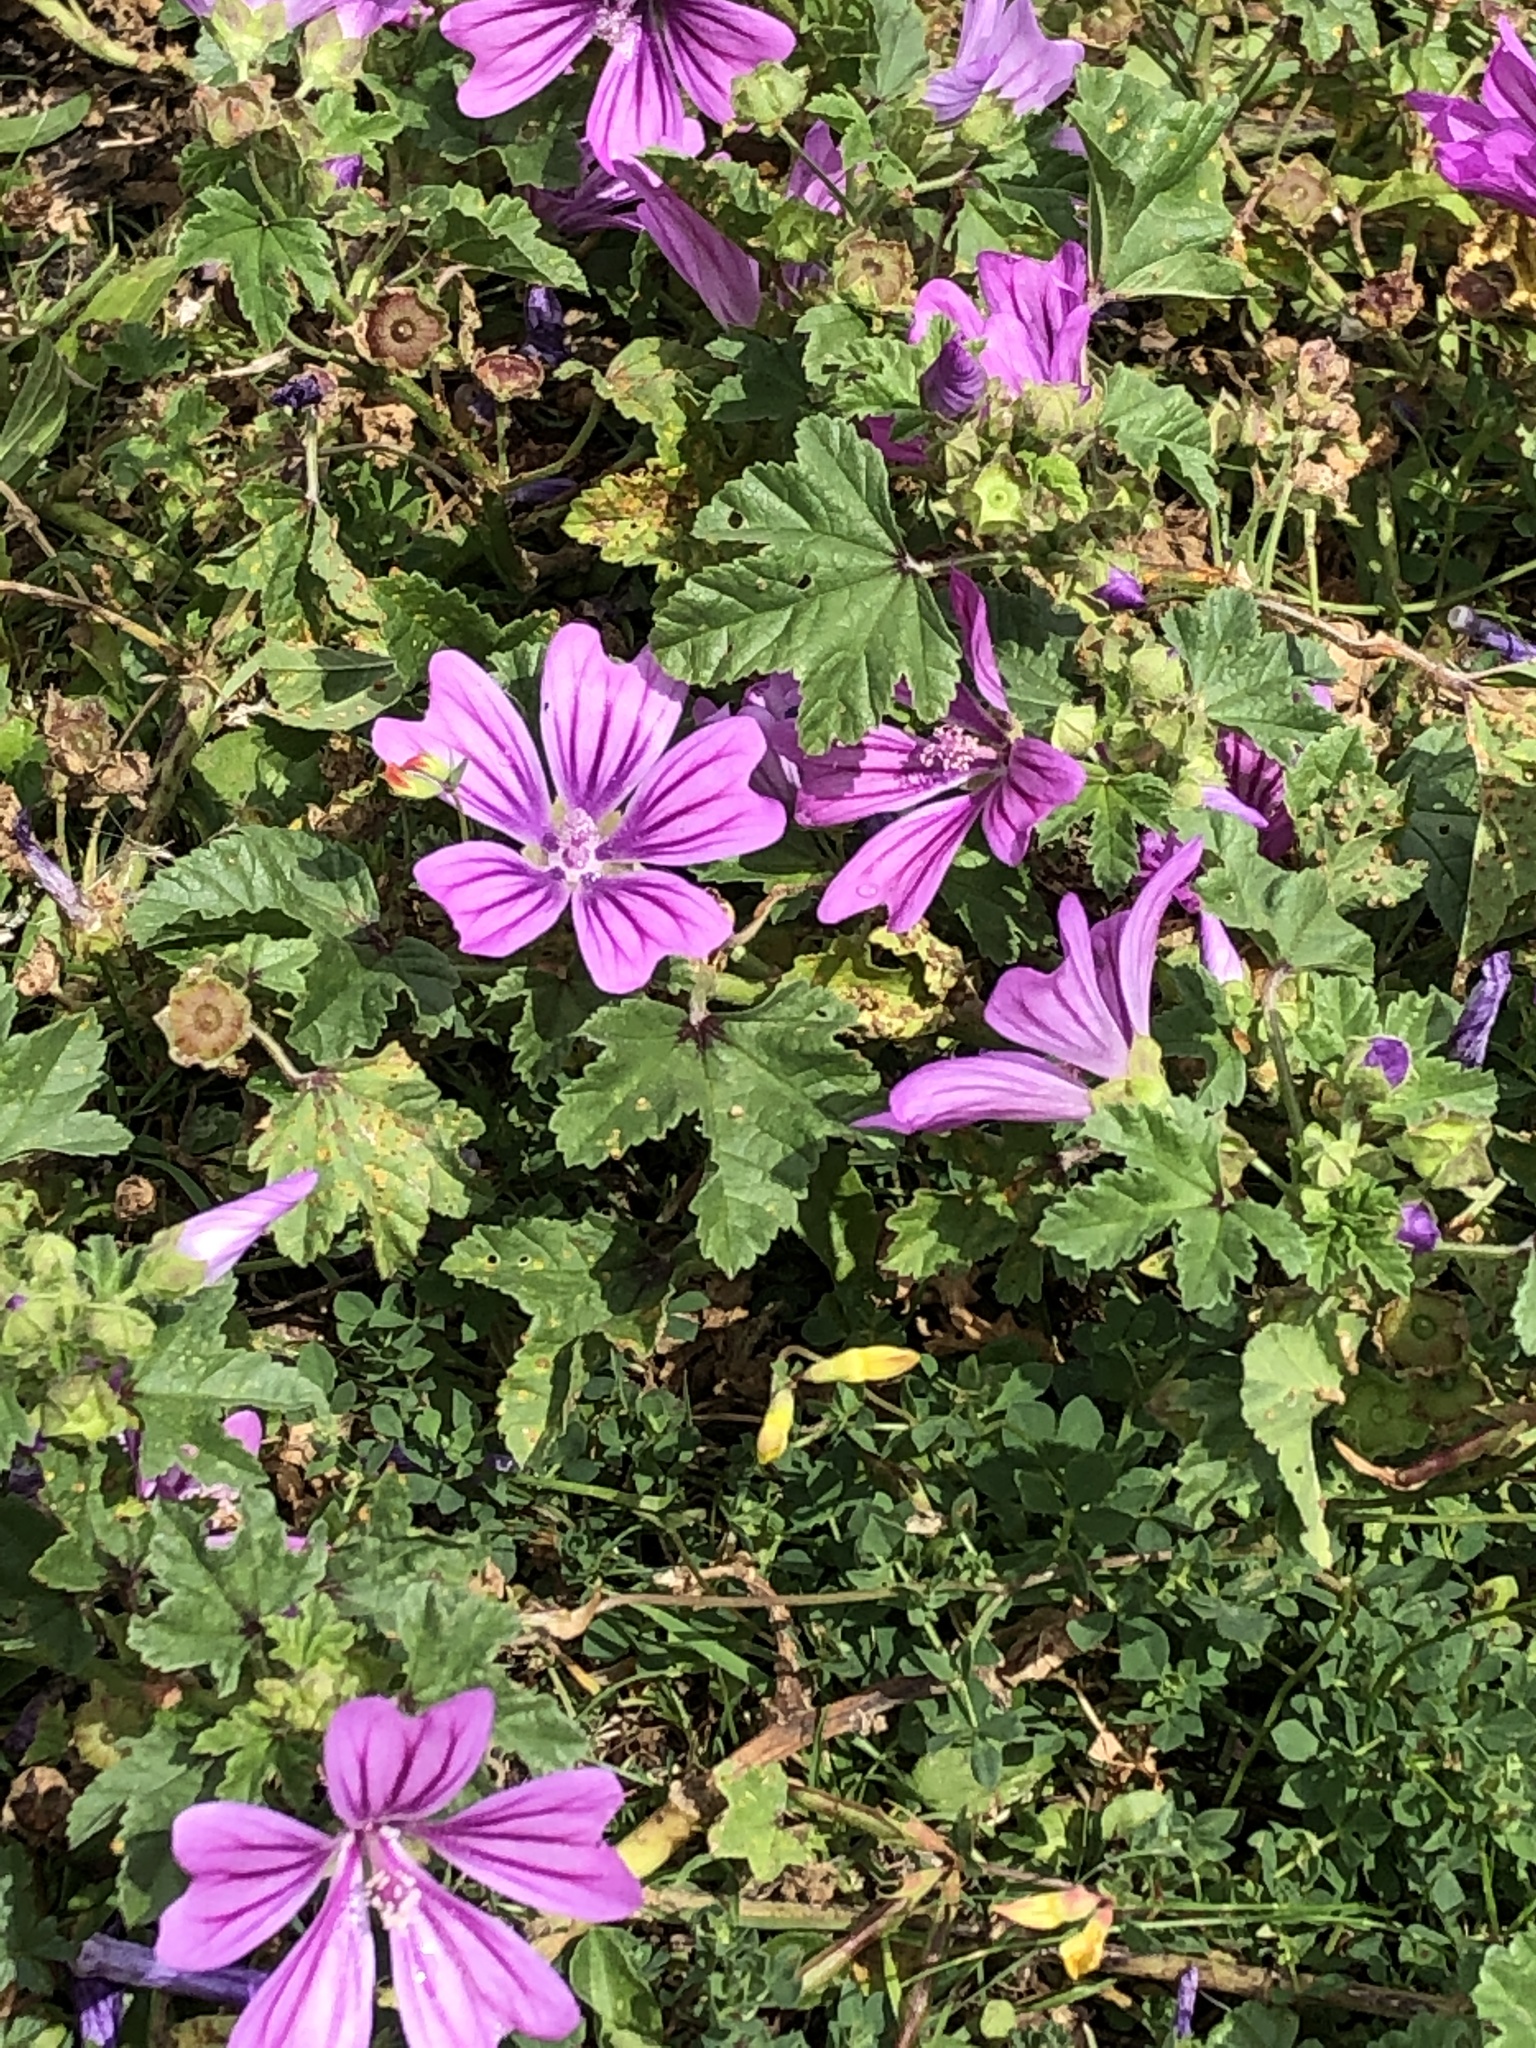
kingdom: Plantae
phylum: Tracheophyta
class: Magnoliopsida
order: Malvales
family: Malvaceae
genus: Malva
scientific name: Malva sylvestris
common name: Common mallow
